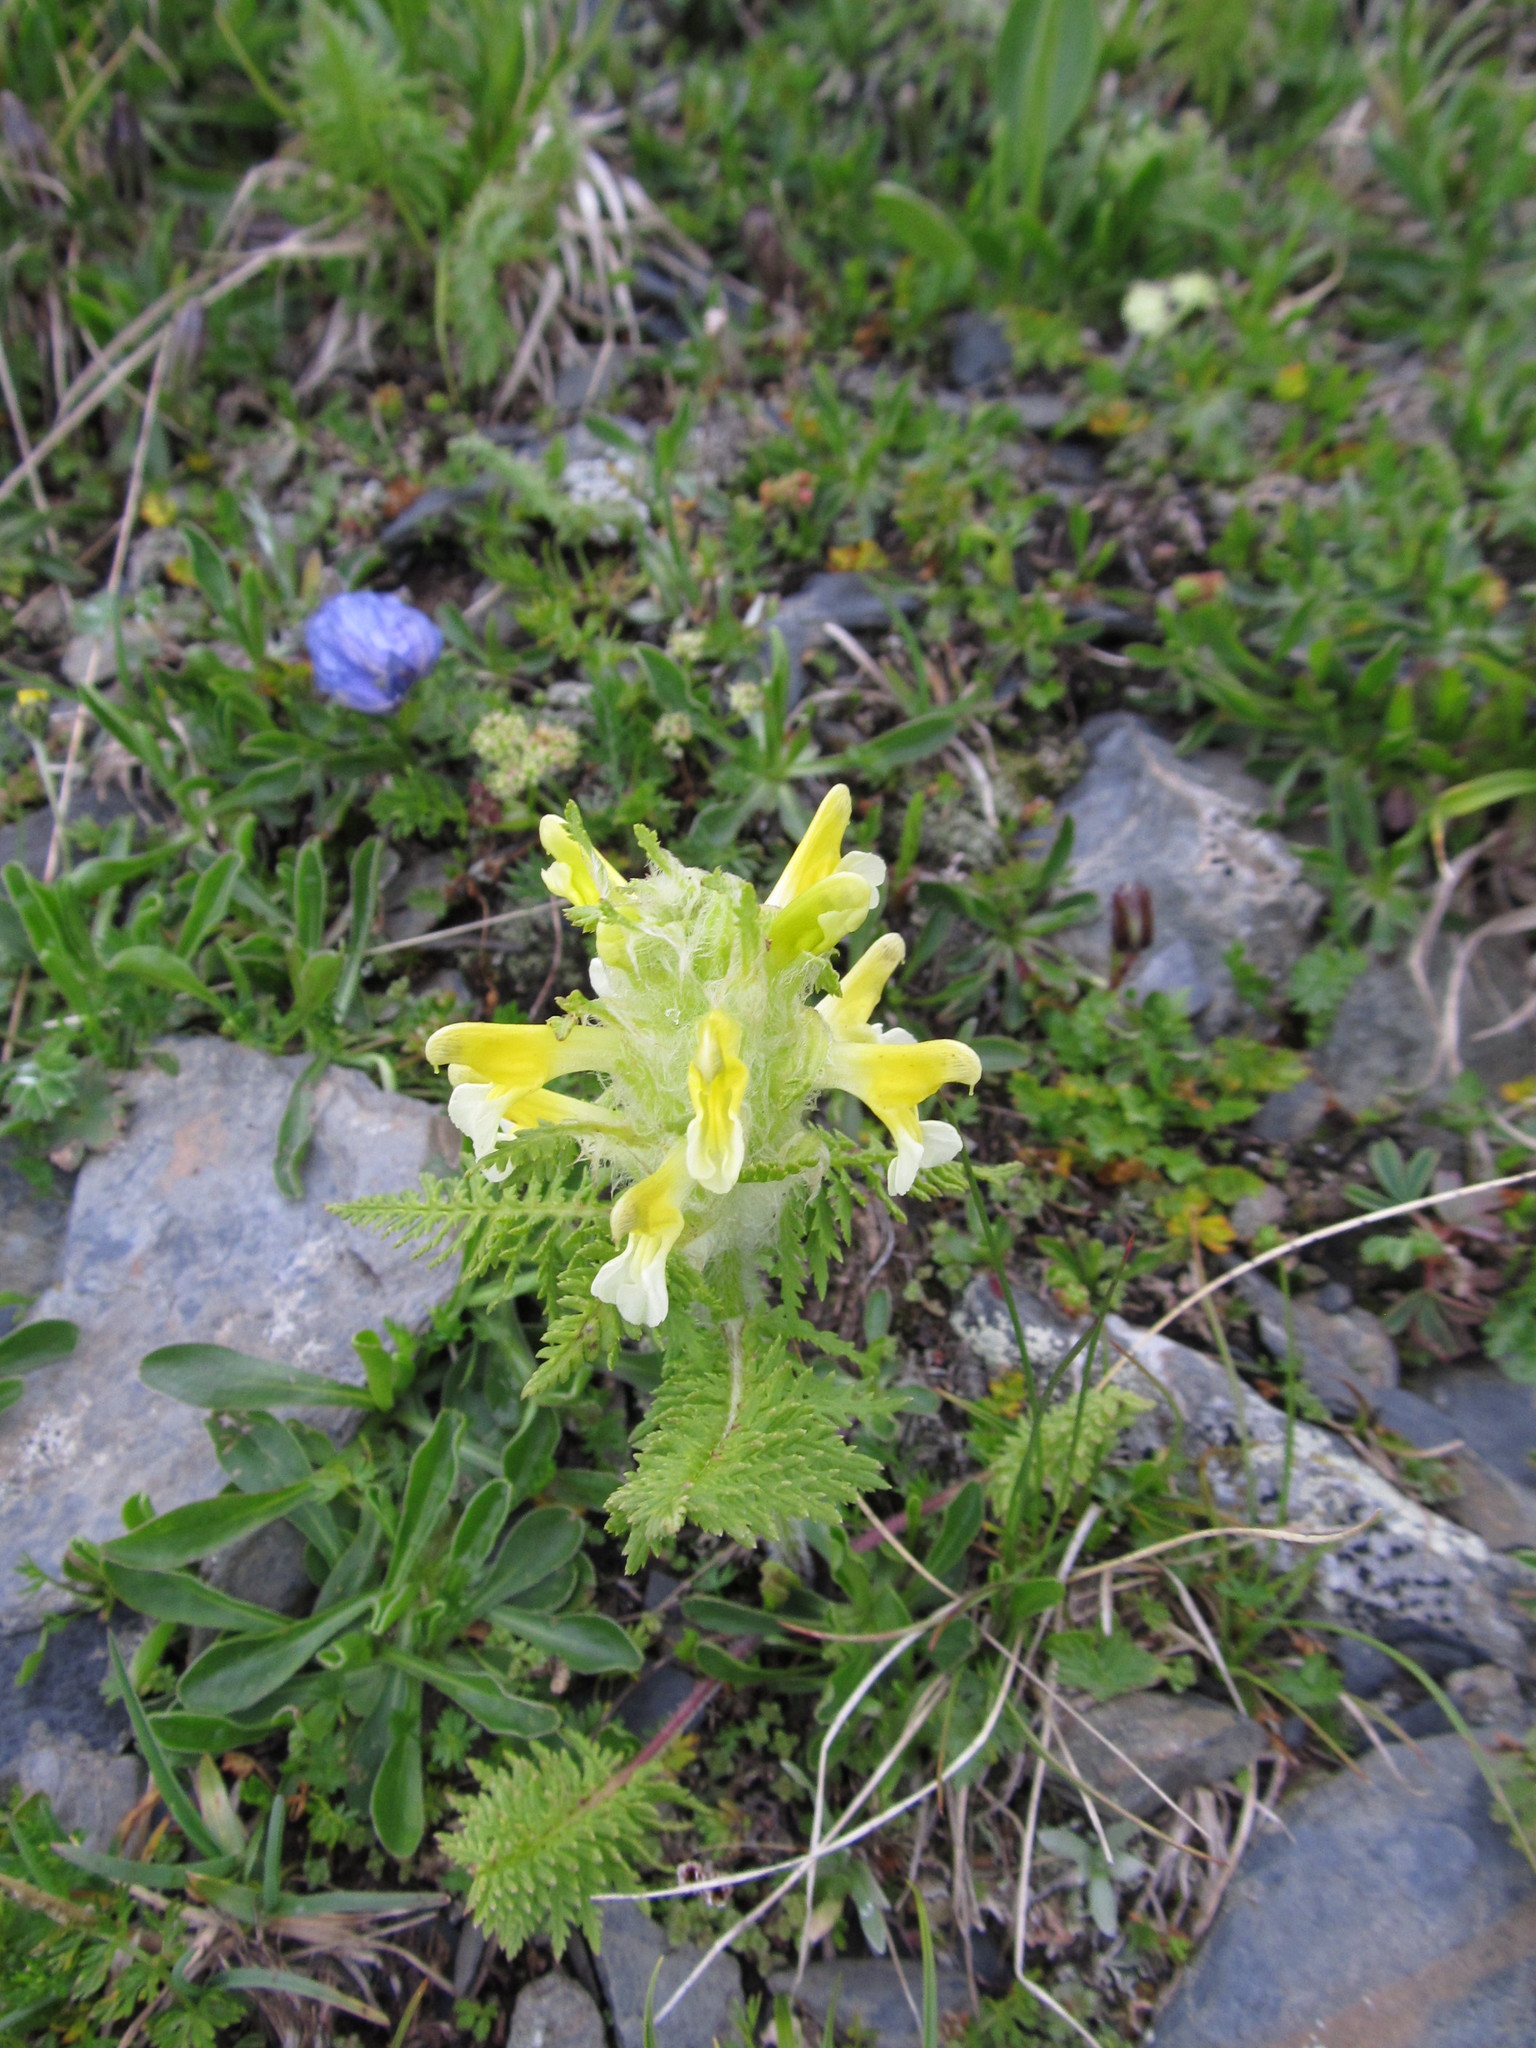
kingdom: Plantae
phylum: Tracheophyta
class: Magnoliopsida
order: Lamiales
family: Orobanchaceae
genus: Pedicularis
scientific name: Pedicularis condensata
